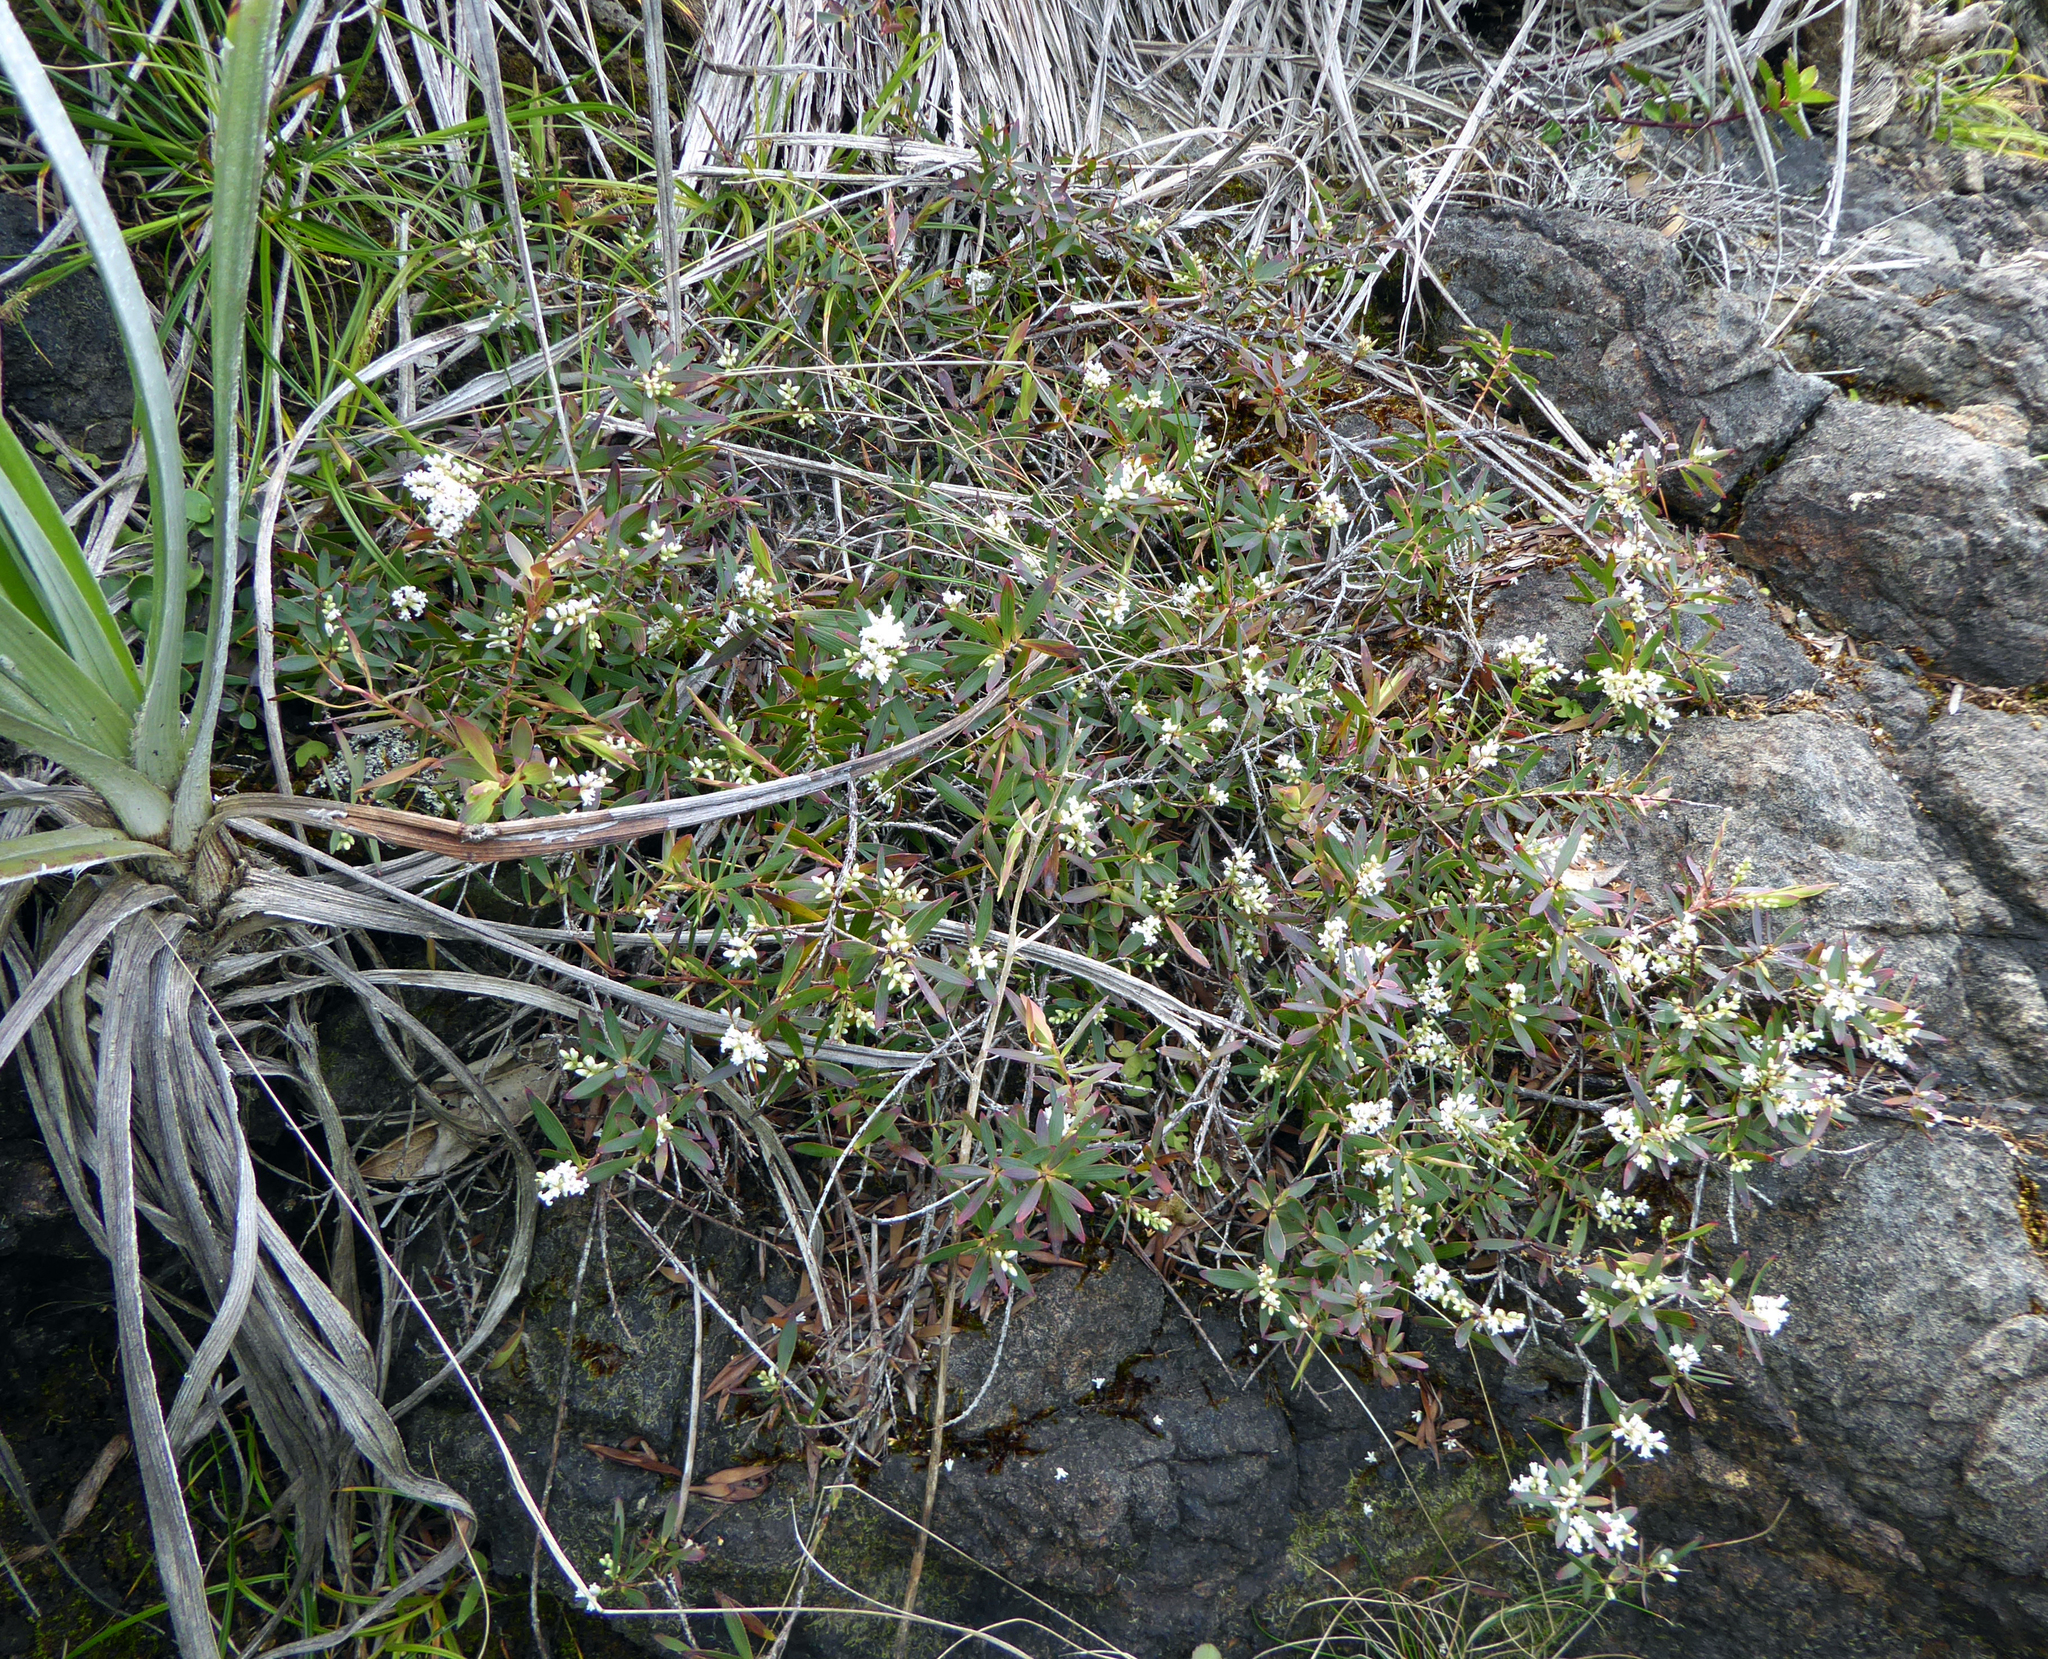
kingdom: Plantae
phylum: Tracheophyta
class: Magnoliopsida
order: Ericales
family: Ericaceae
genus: Leucopogon
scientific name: Leucopogon xerampelinus
